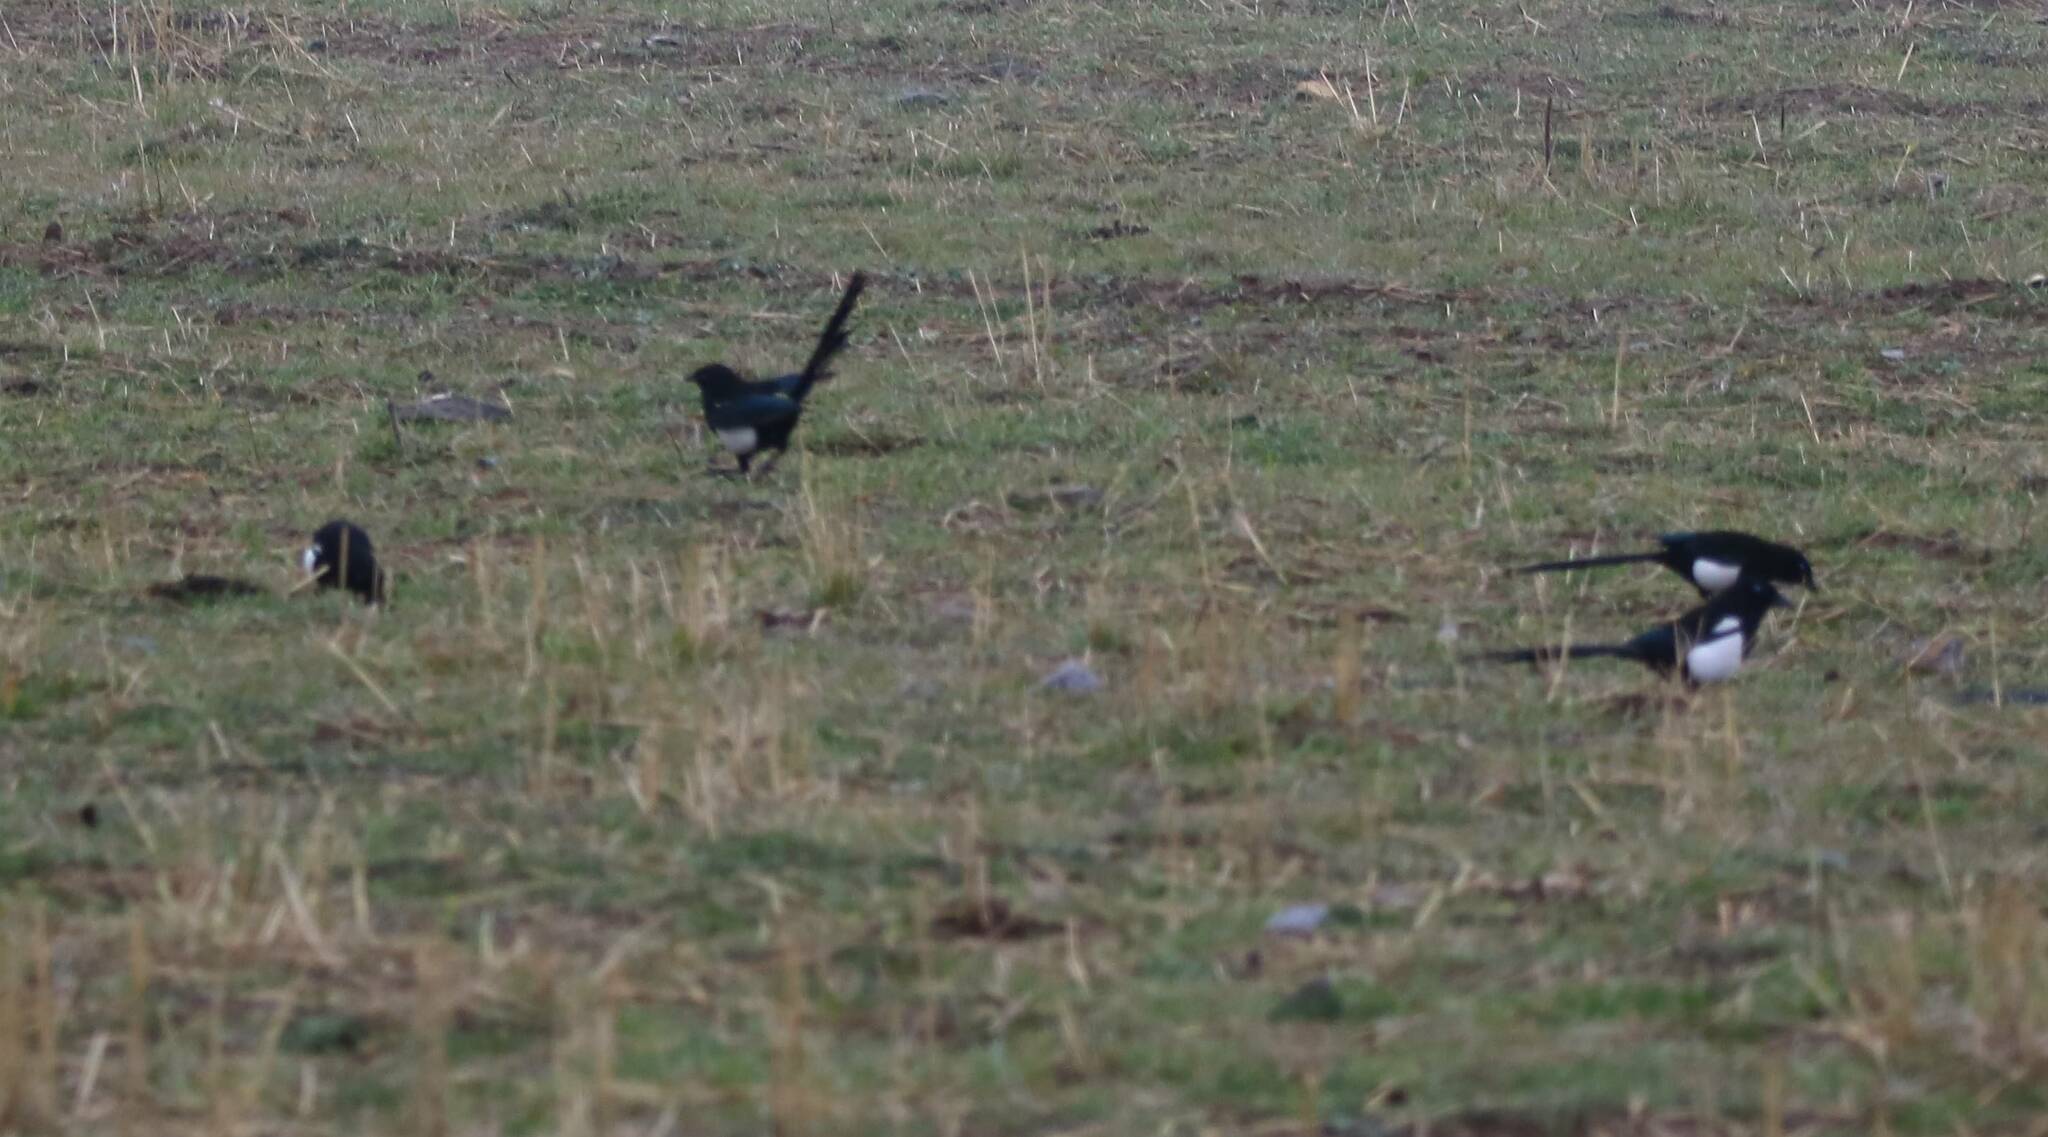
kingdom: Animalia
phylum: Chordata
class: Aves
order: Passeriformes
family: Corvidae
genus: Pica
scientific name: Pica mauritanica
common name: Maghreb magpie
